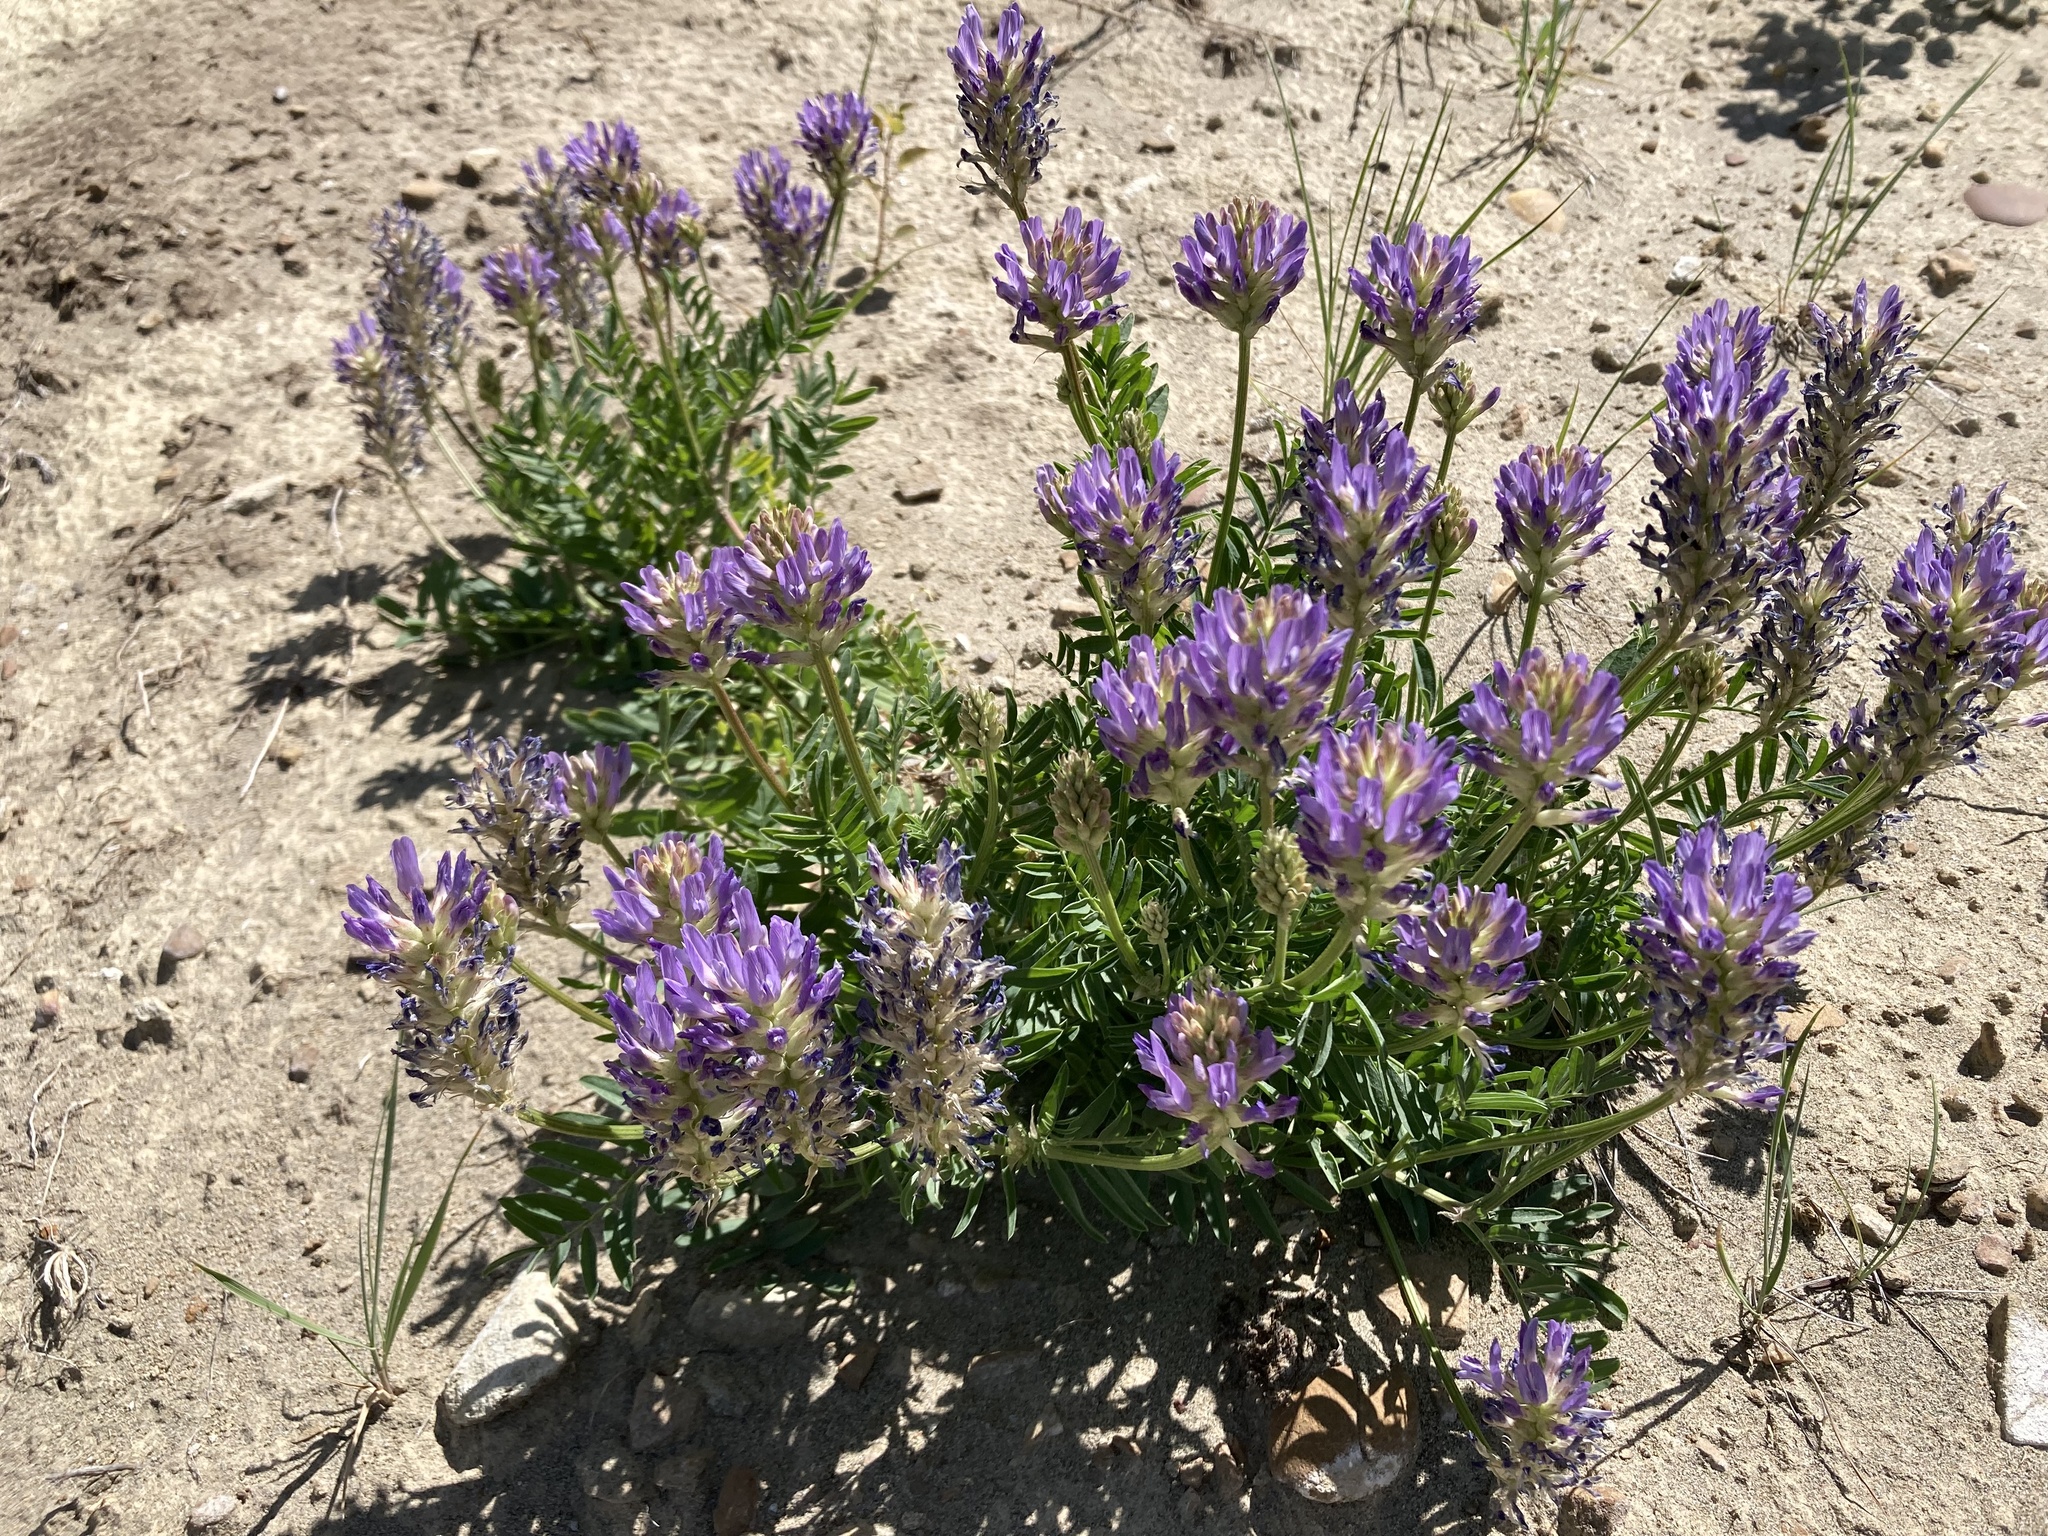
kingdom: Plantae
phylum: Tracheophyta
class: Magnoliopsida
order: Fabales
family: Fabaceae
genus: Astragalus
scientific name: Astragalus laxmannii
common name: Laxmann's milk-vetch
